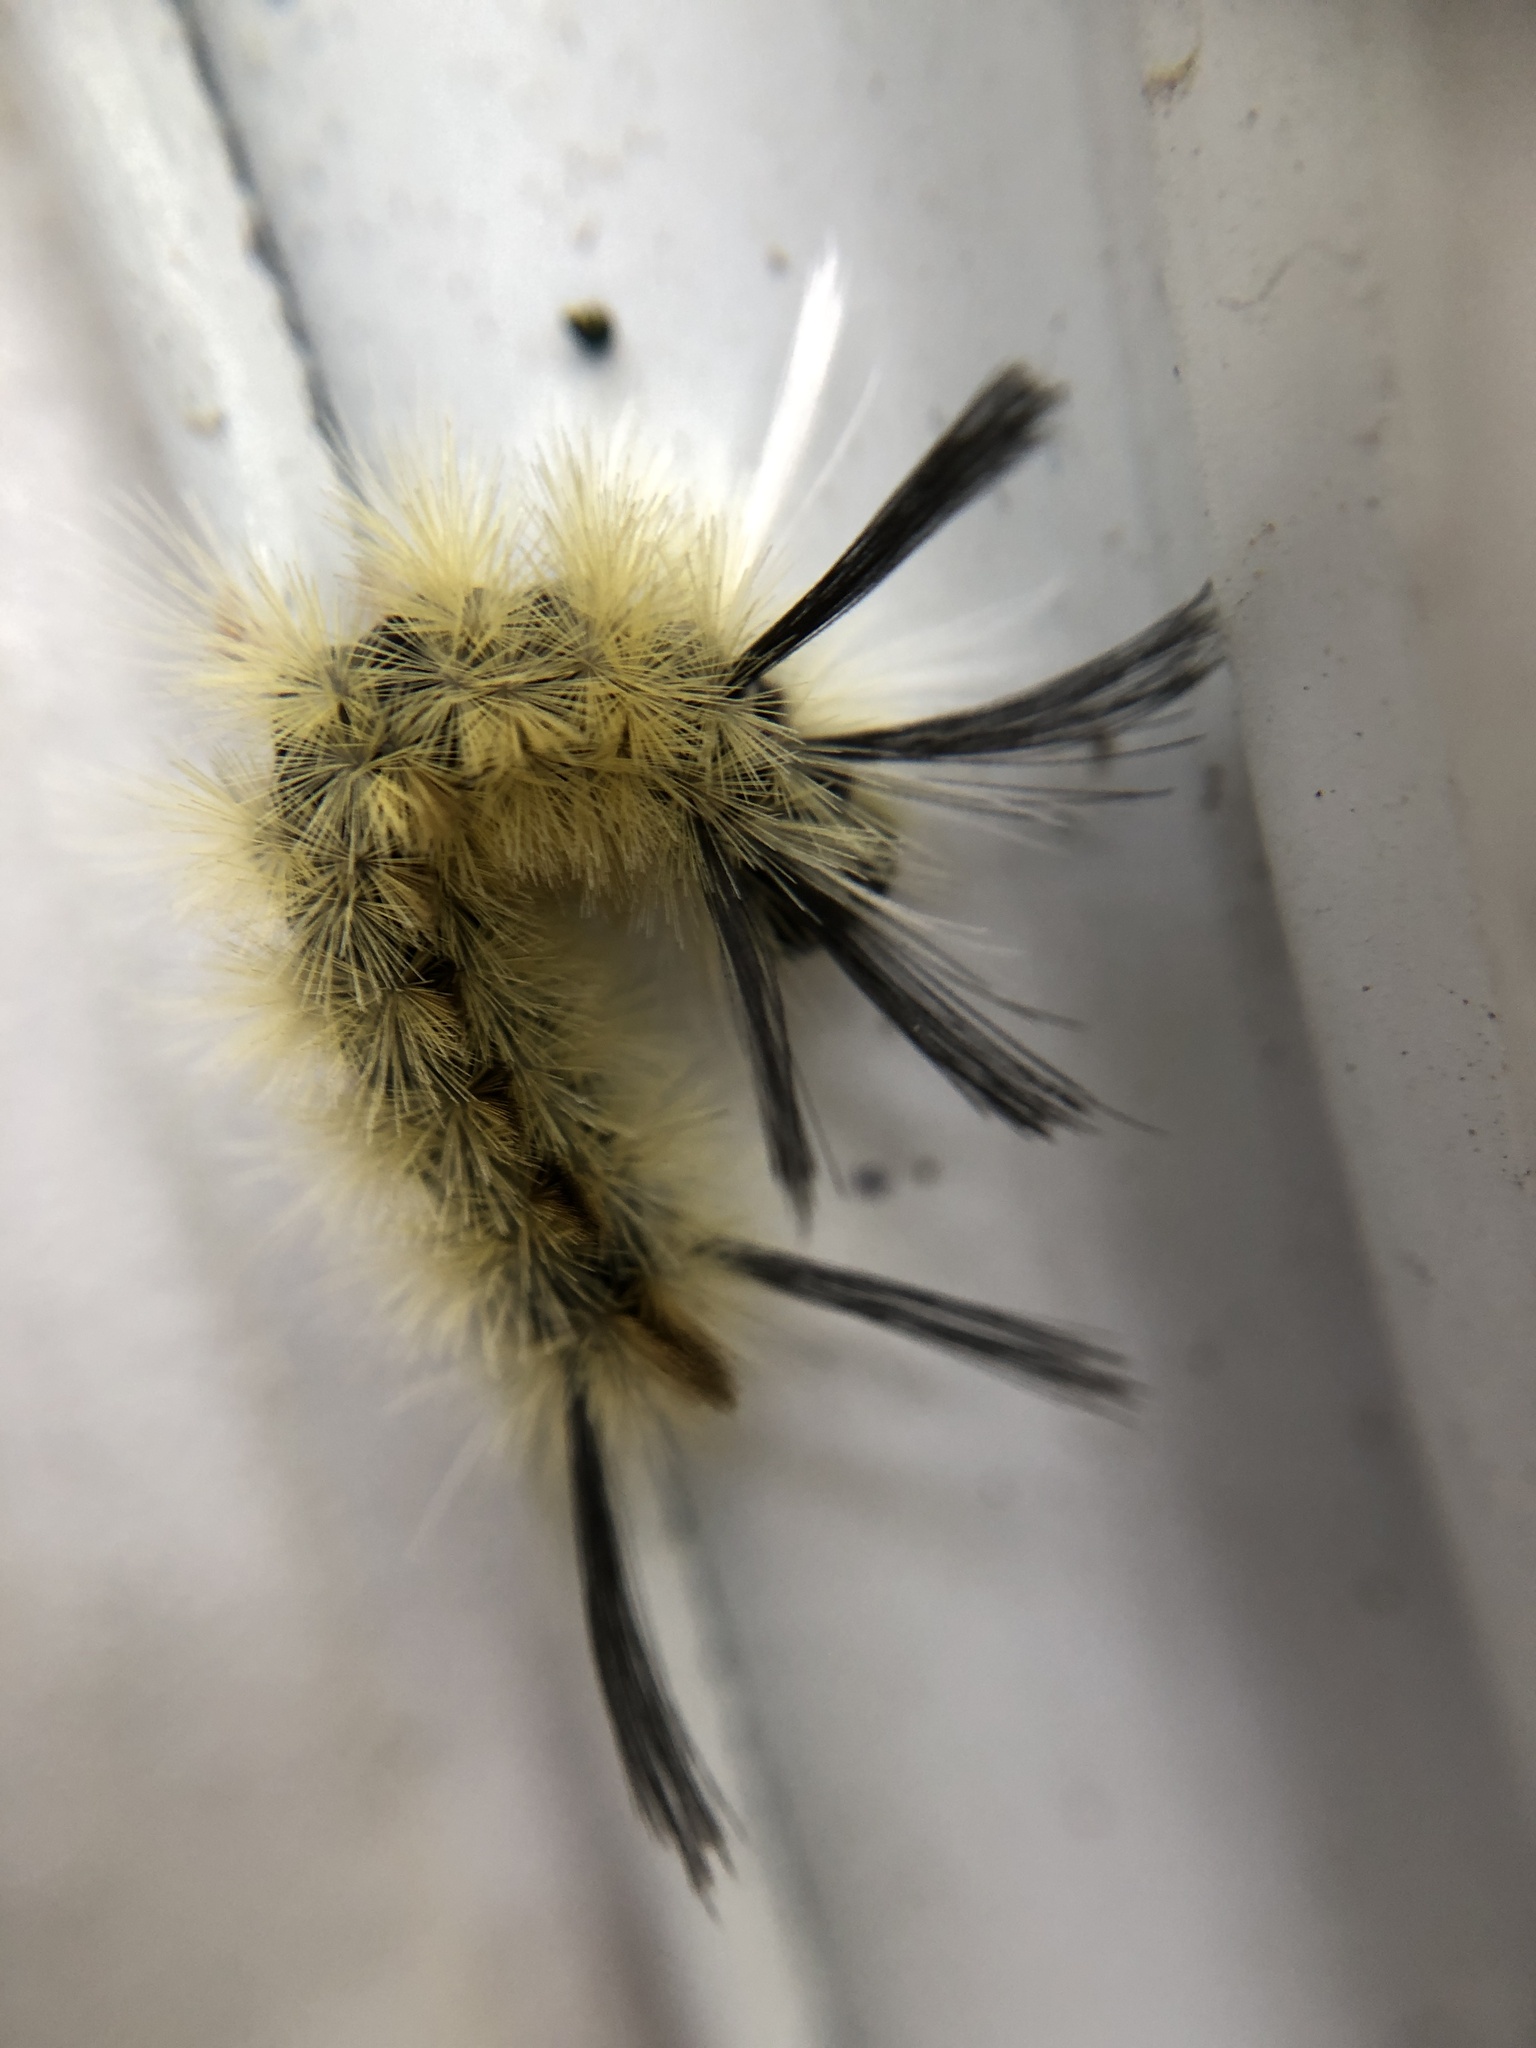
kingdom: Animalia
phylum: Arthropoda
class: Insecta
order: Lepidoptera
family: Erebidae
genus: Halysidota
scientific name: Halysidota tessellaris
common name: Banded tussock moth
